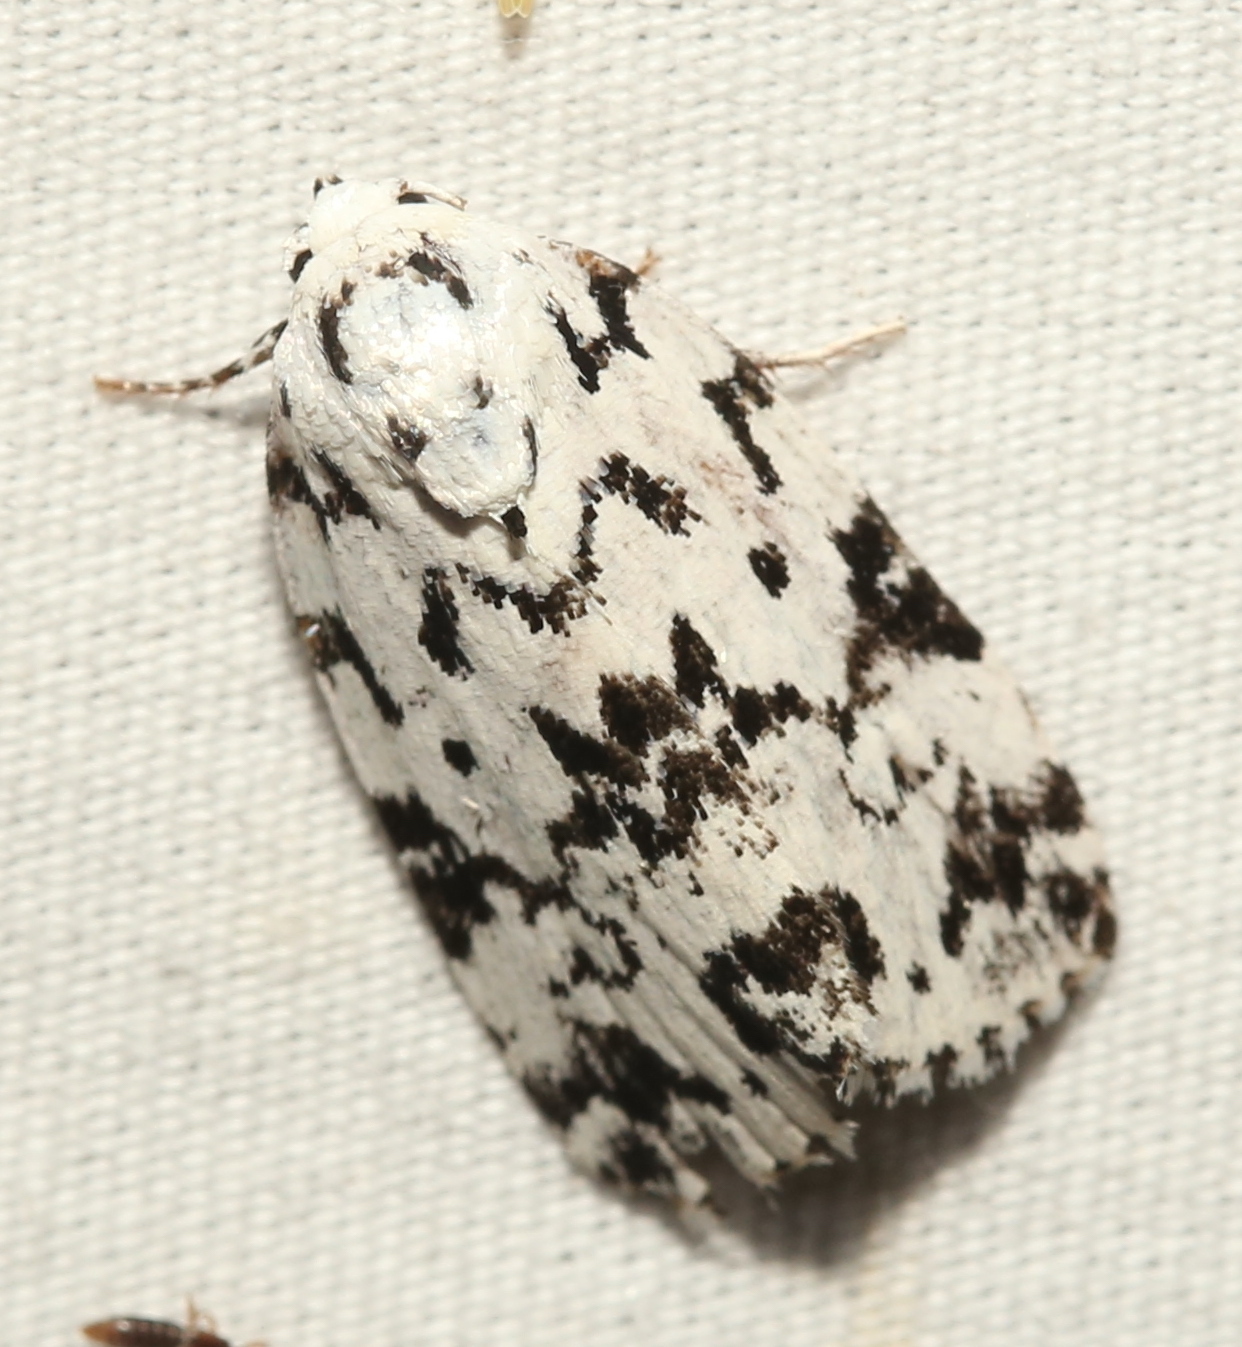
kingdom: Animalia
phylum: Arthropoda
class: Insecta
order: Lepidoptera
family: Noctuidae
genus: Polygrammate
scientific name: Polygrammate hebraeicum
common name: Hebrew moth
